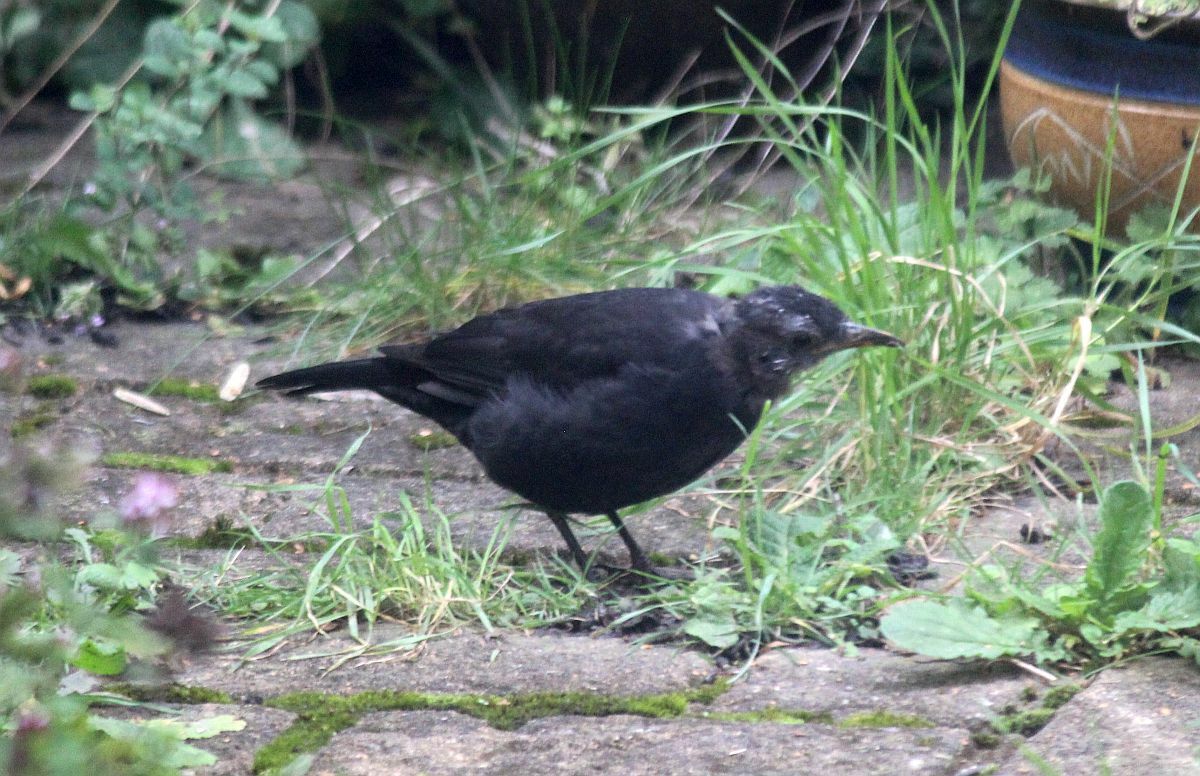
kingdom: Animalia
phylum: Chordata
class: Aves
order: Passeriformes
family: Turdidae
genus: Turdus
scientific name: Turdus merula
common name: Common blackbird
